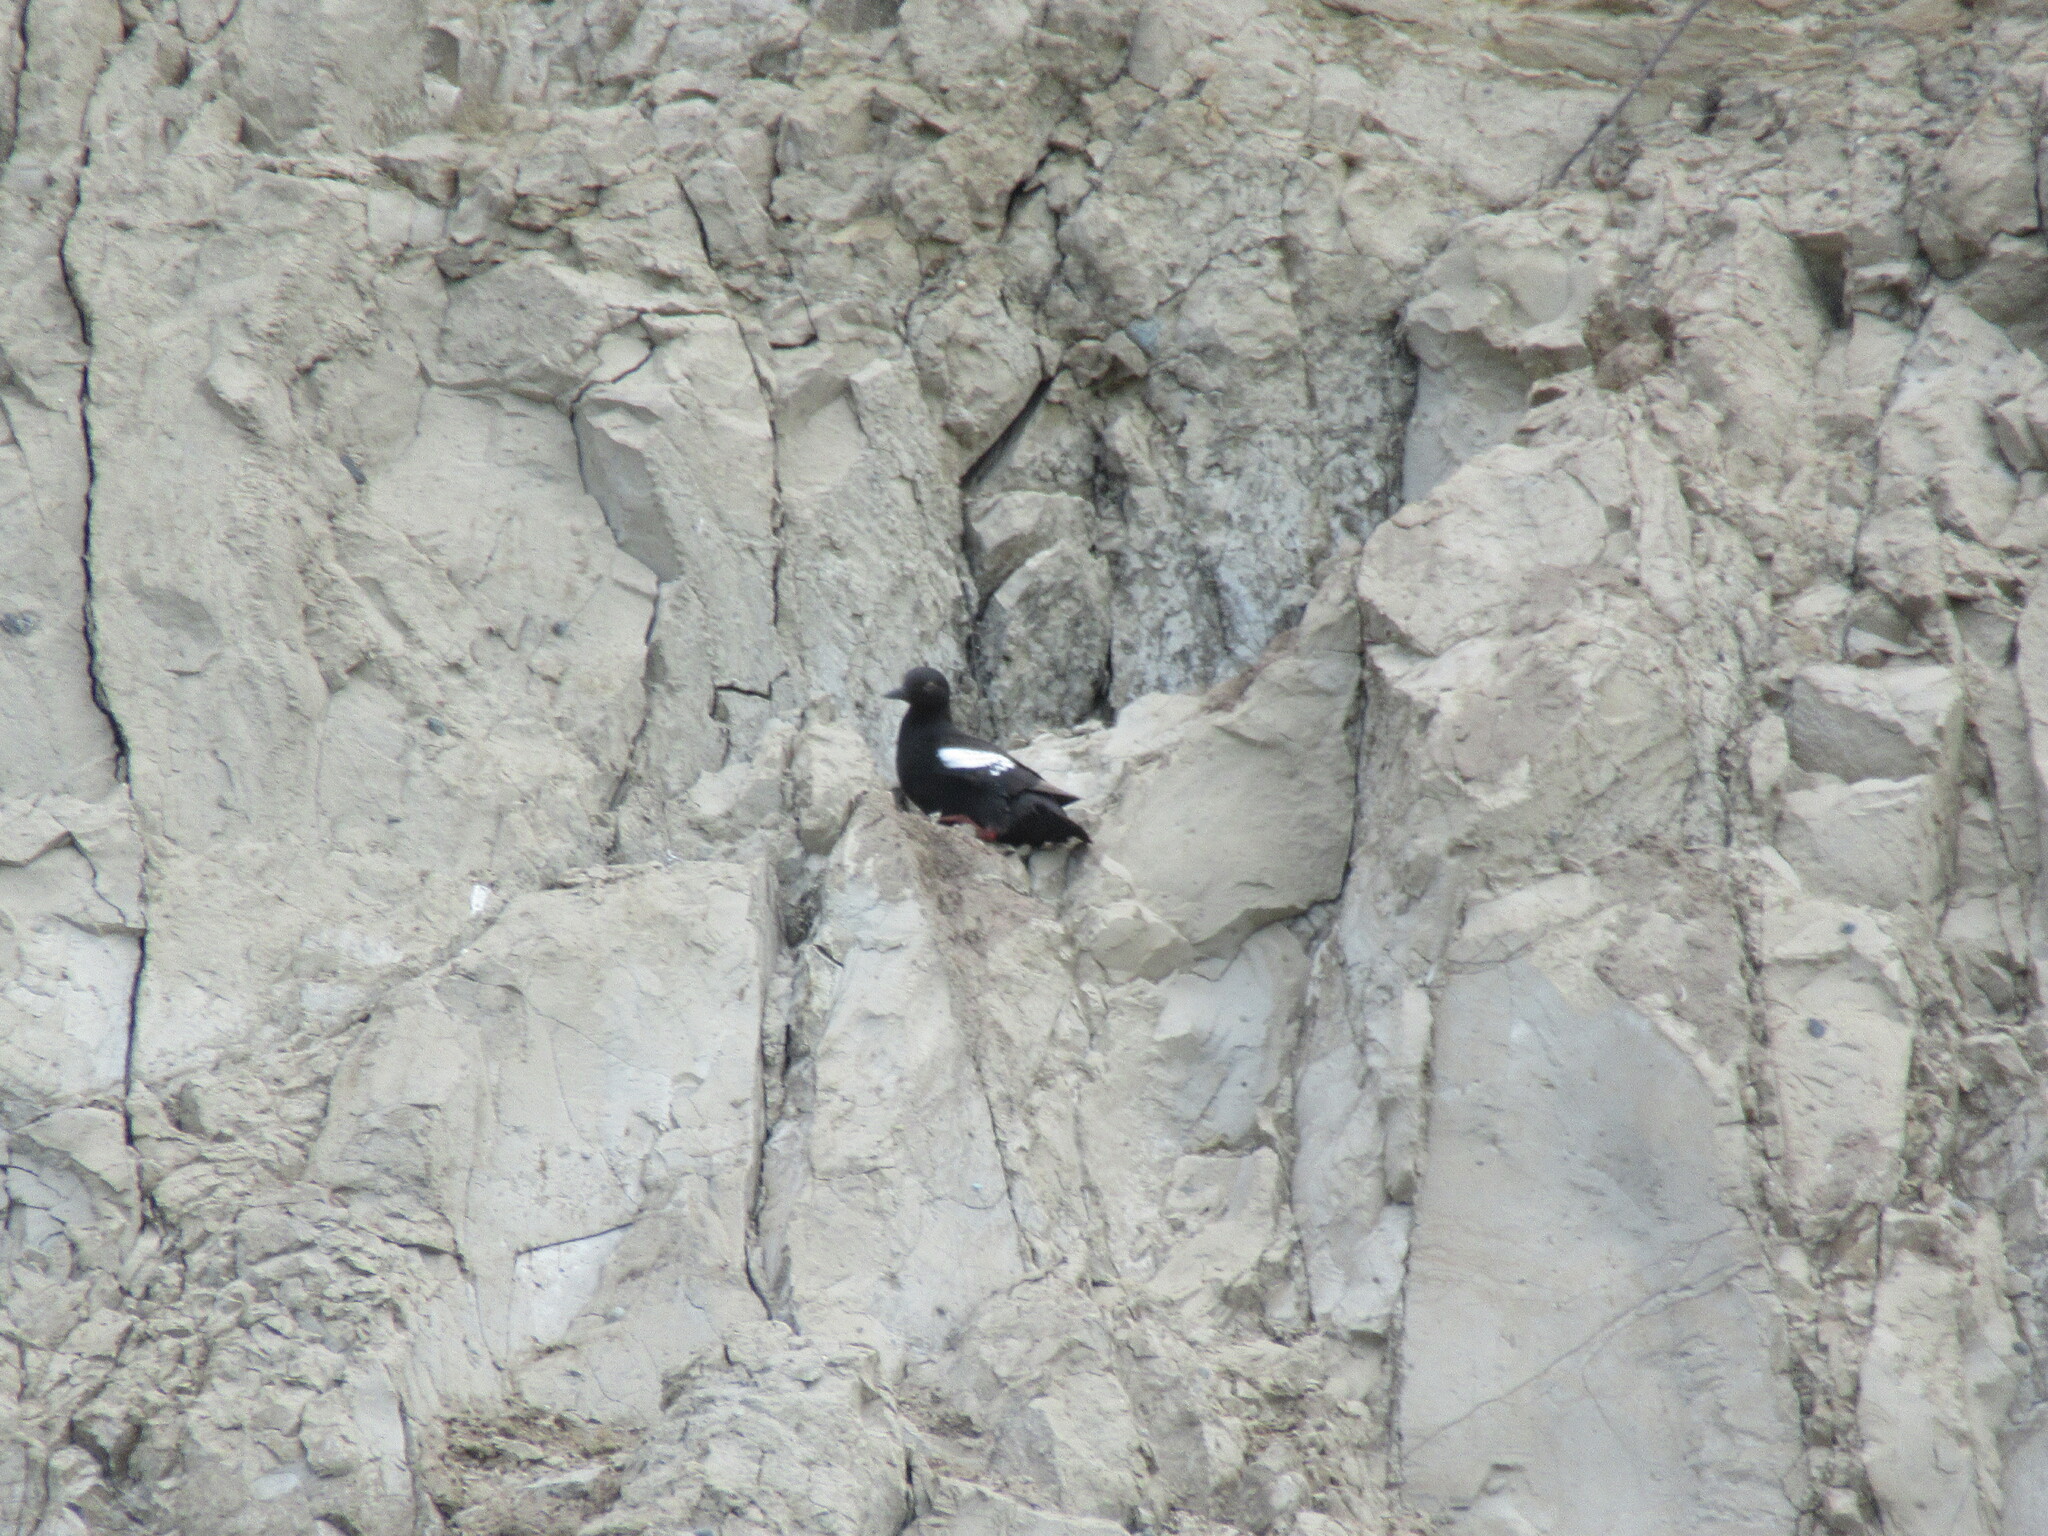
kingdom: Animalia
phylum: Chordata
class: Aves
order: Charadriiformes
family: Alcidae
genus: Cepphus
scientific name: Cepphus columba
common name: Pigeon guillemot
